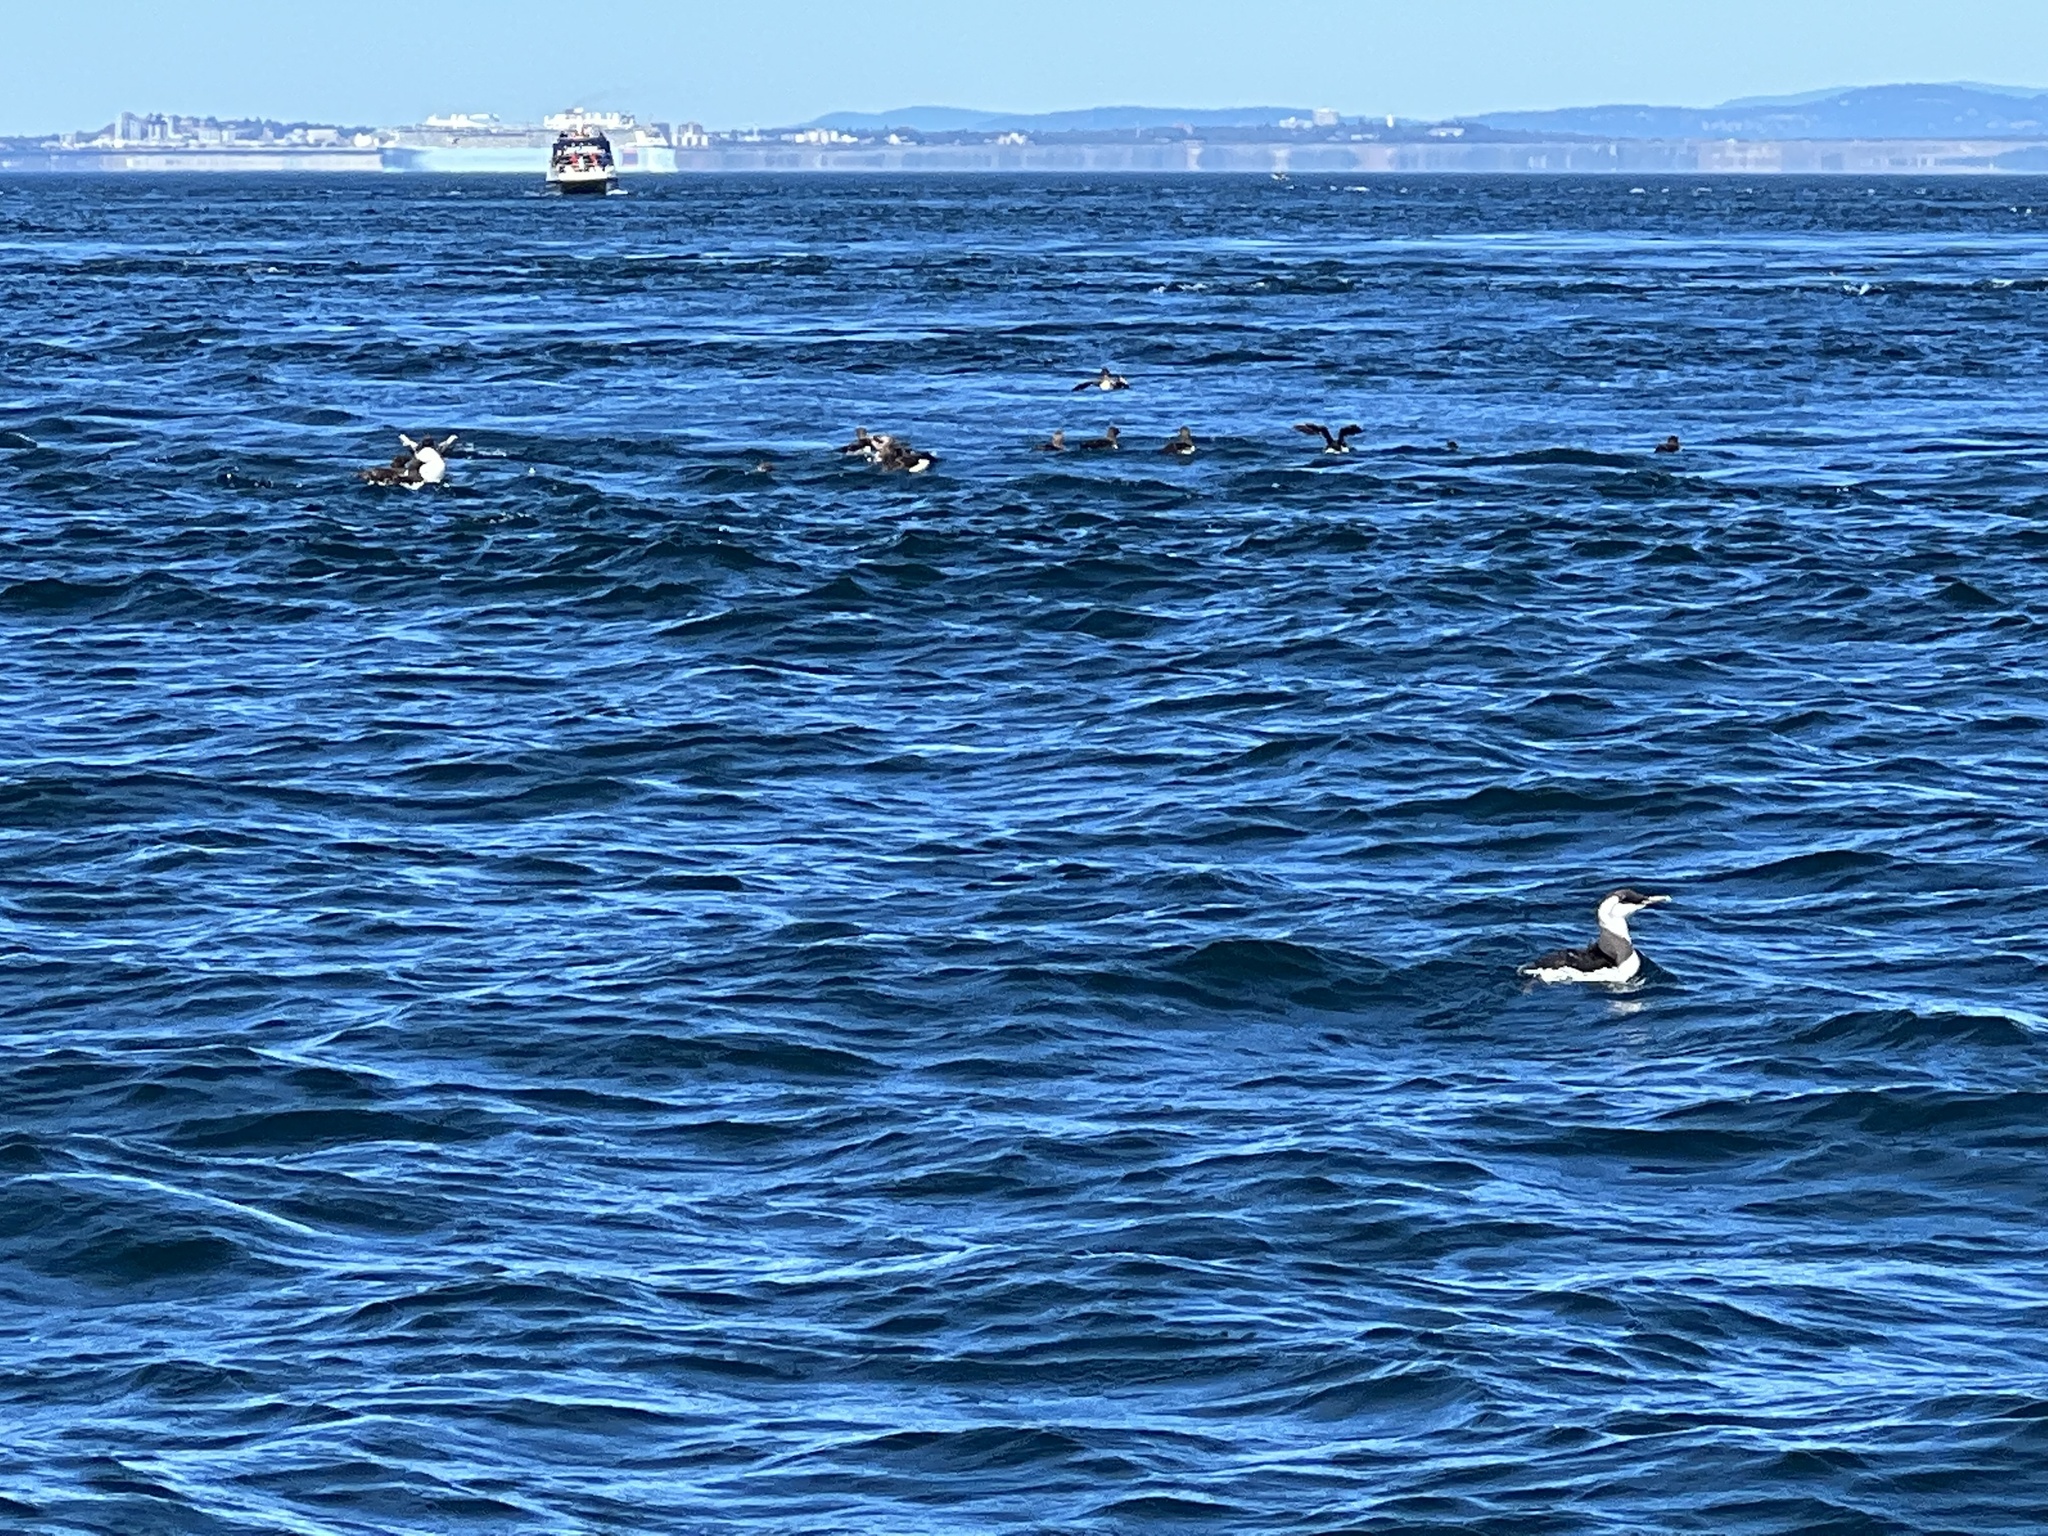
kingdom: Animalia
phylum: Chordata
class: Aves
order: Charadriiformes
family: Alcidae
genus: Uria
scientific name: Uria aalge
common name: Common murre
